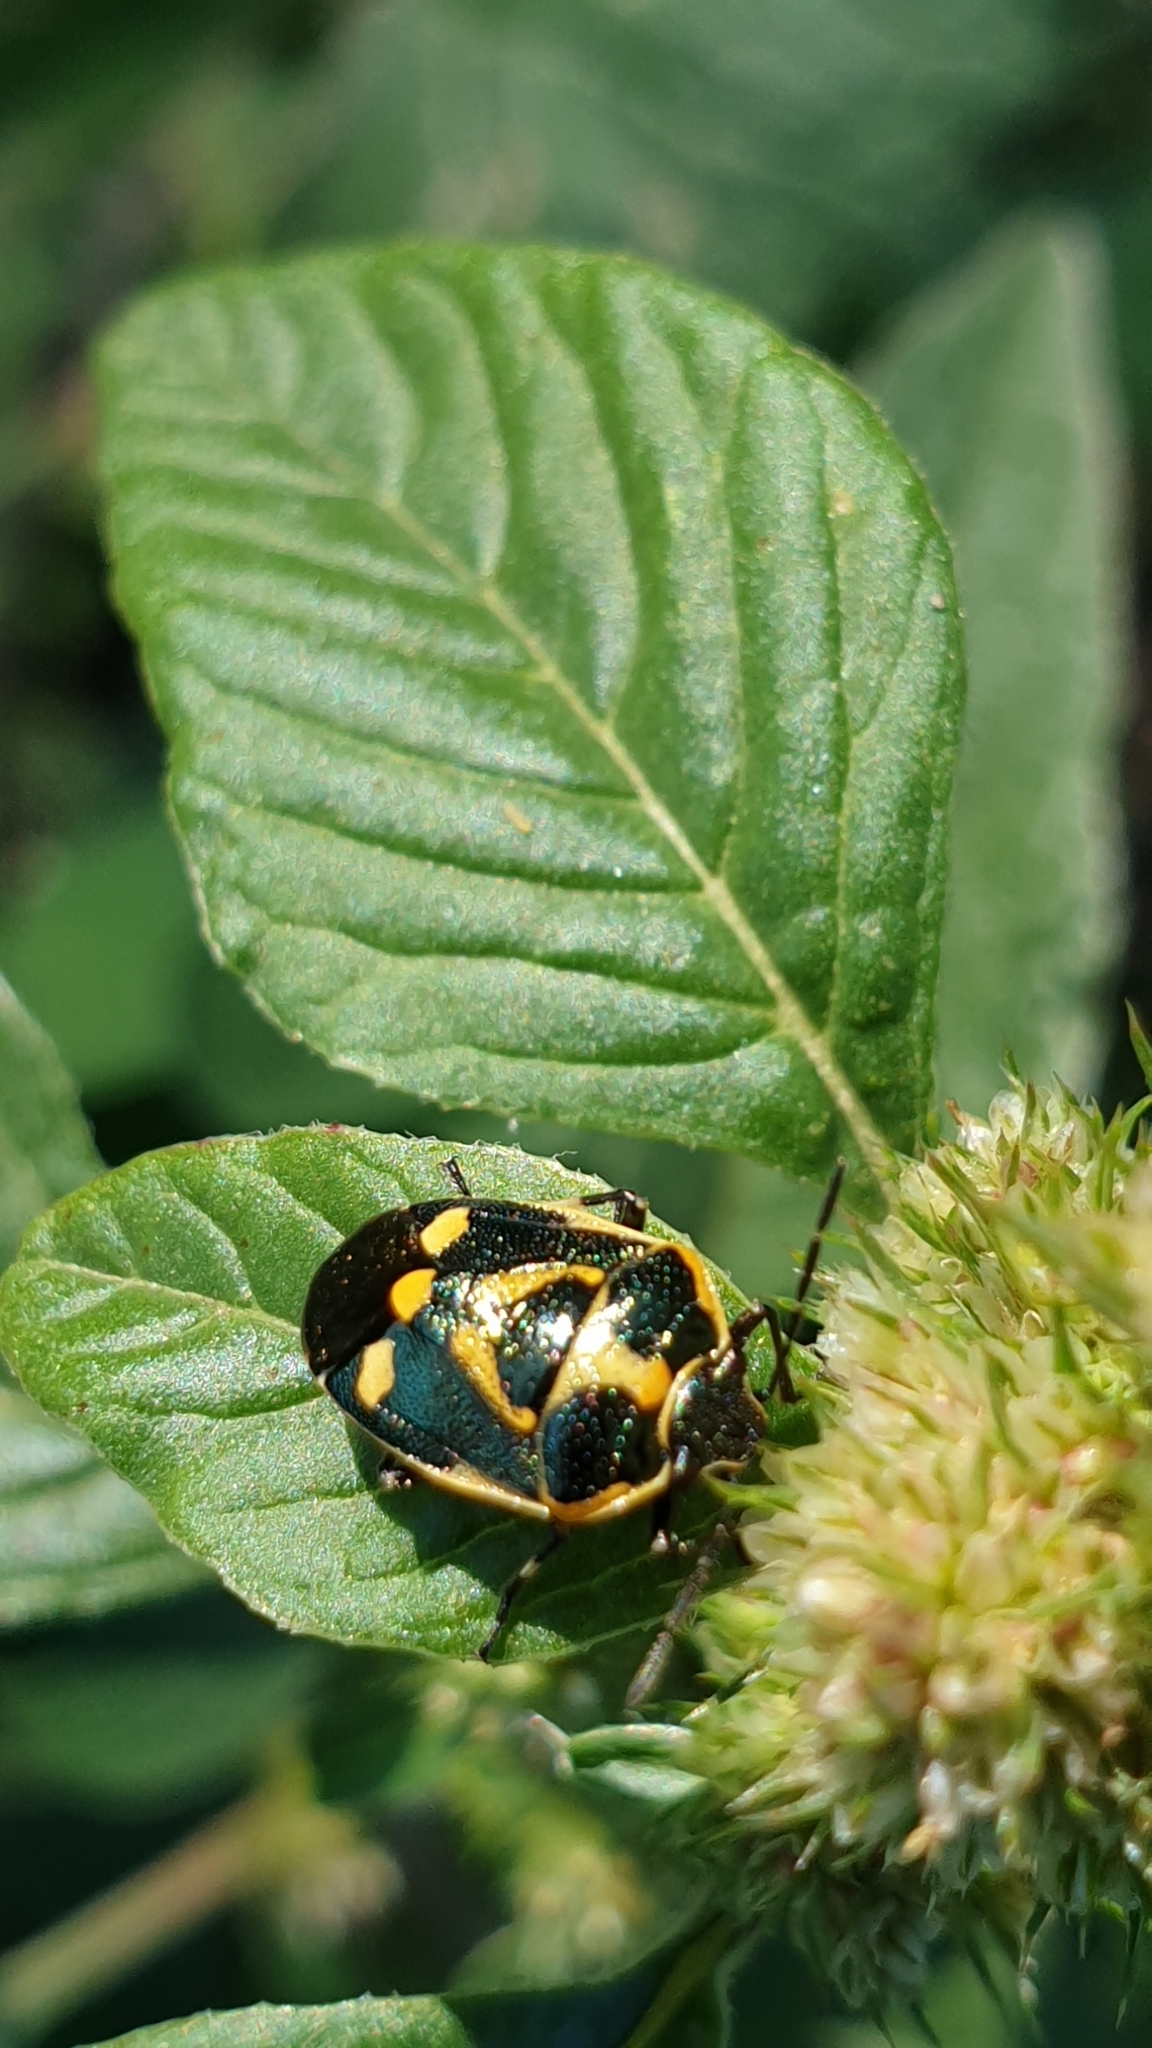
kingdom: Animalia
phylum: Arthropoda
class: Insecta
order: Hemiptera
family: Pentatomidae
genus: Eurydema
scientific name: Eurydema oleracea
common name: Cabbage bug
